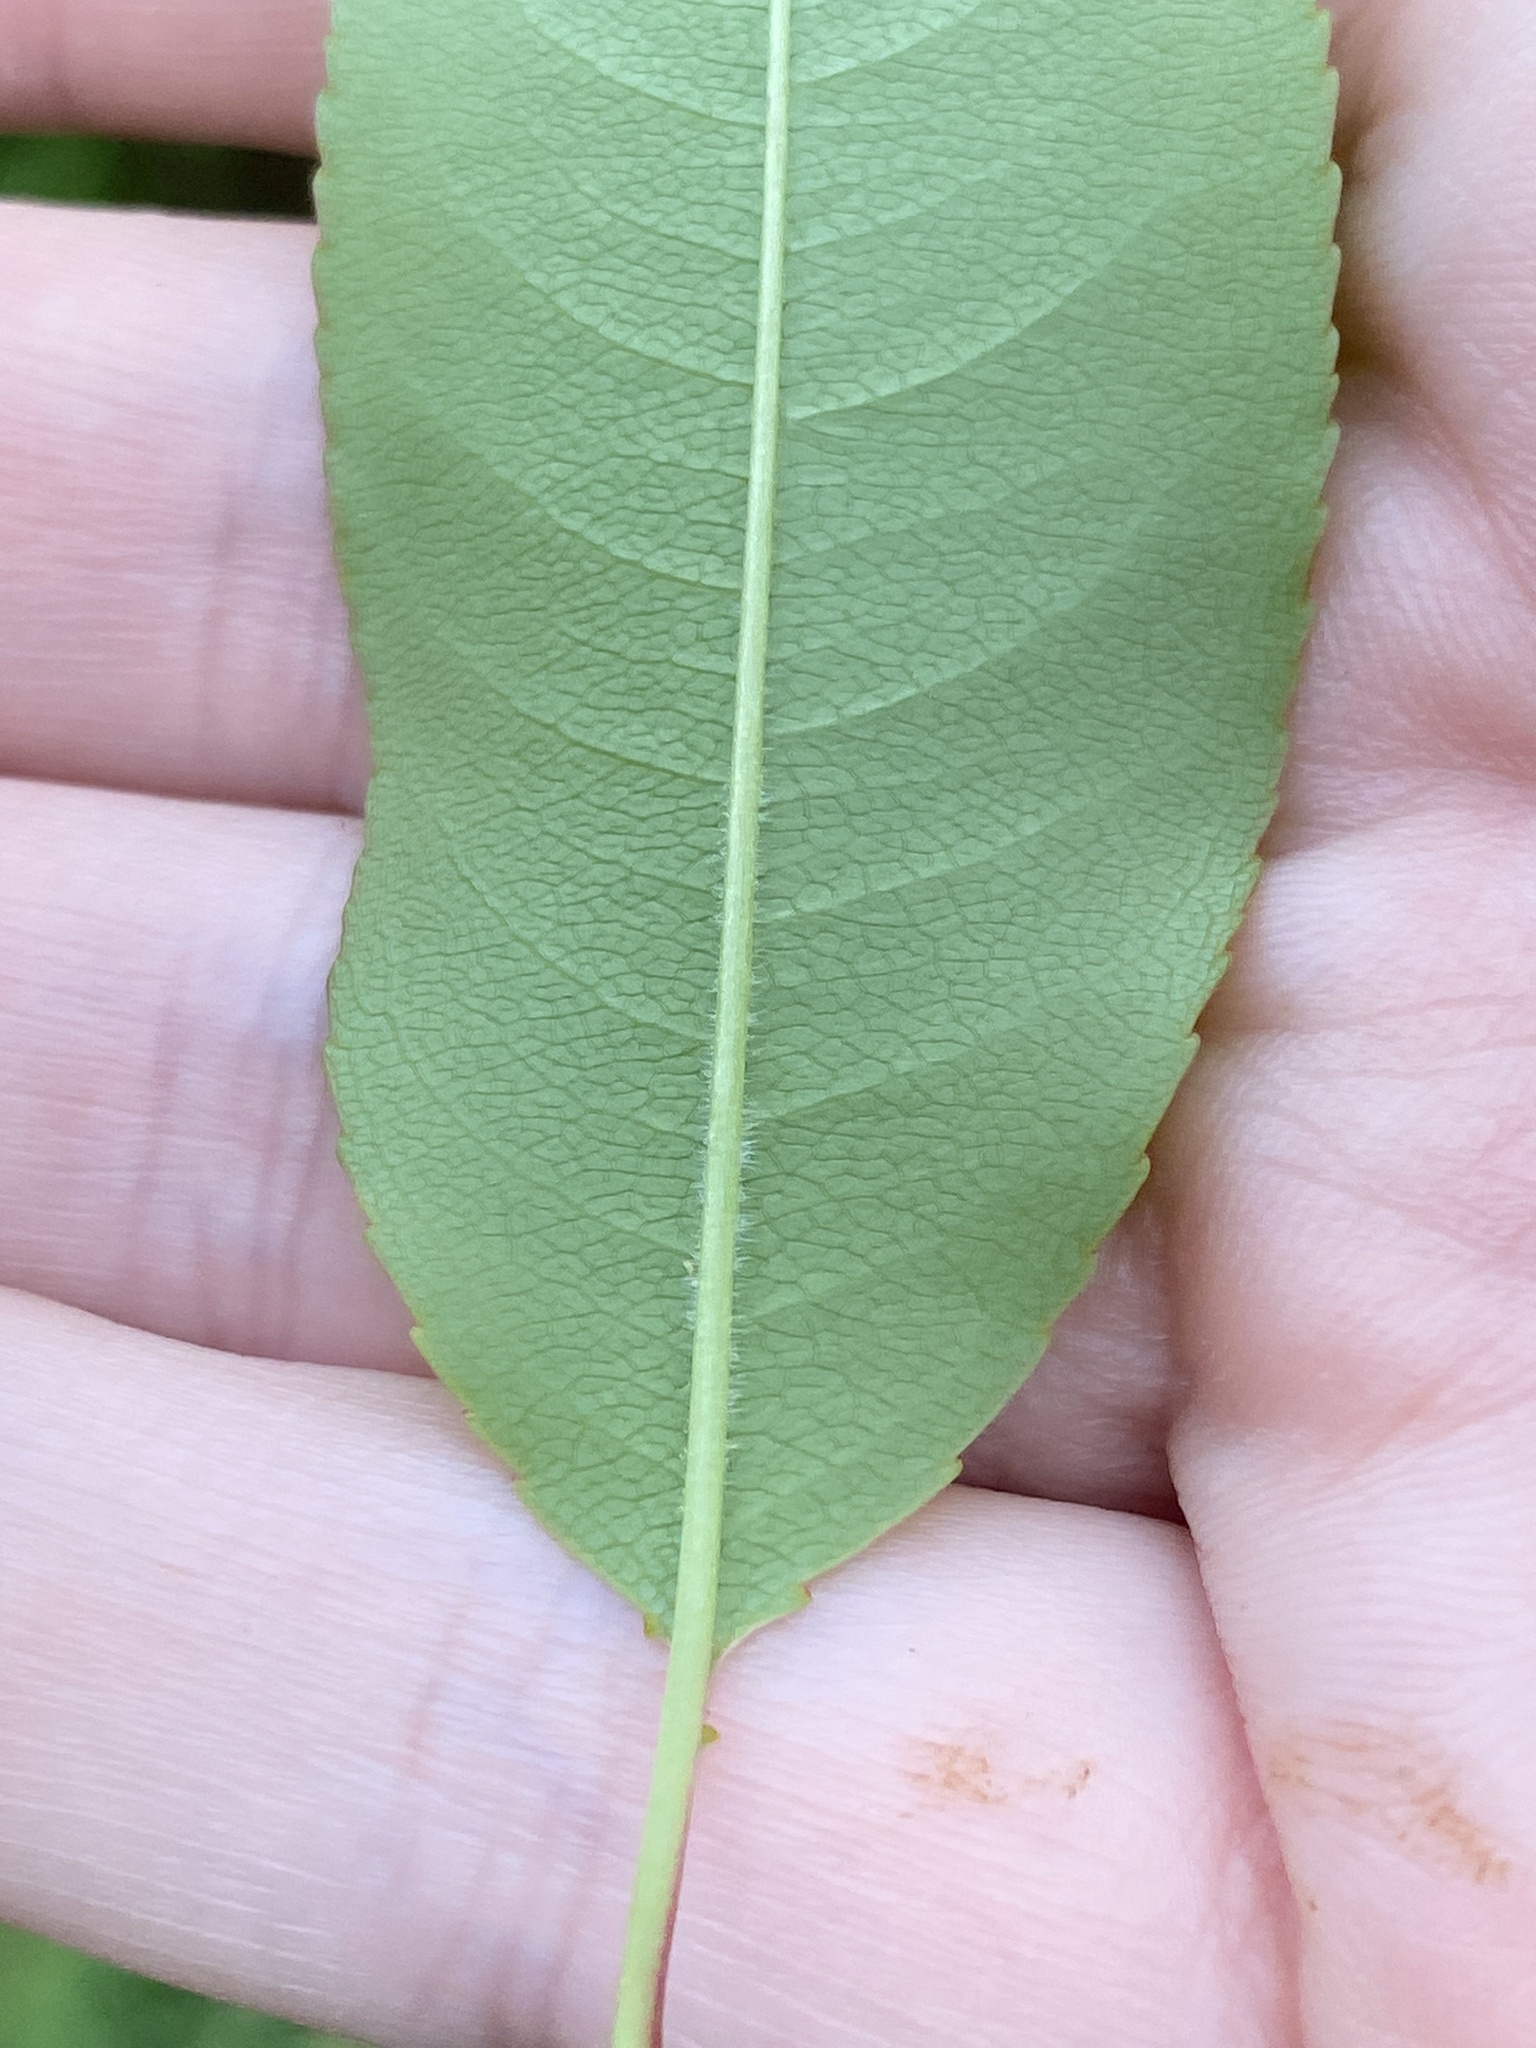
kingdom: Plantae
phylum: Tracheophyta
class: Magnoliopsida
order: Rosales
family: Rosaceae
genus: Prunus
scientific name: Prunus serotina
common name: Black cherry
